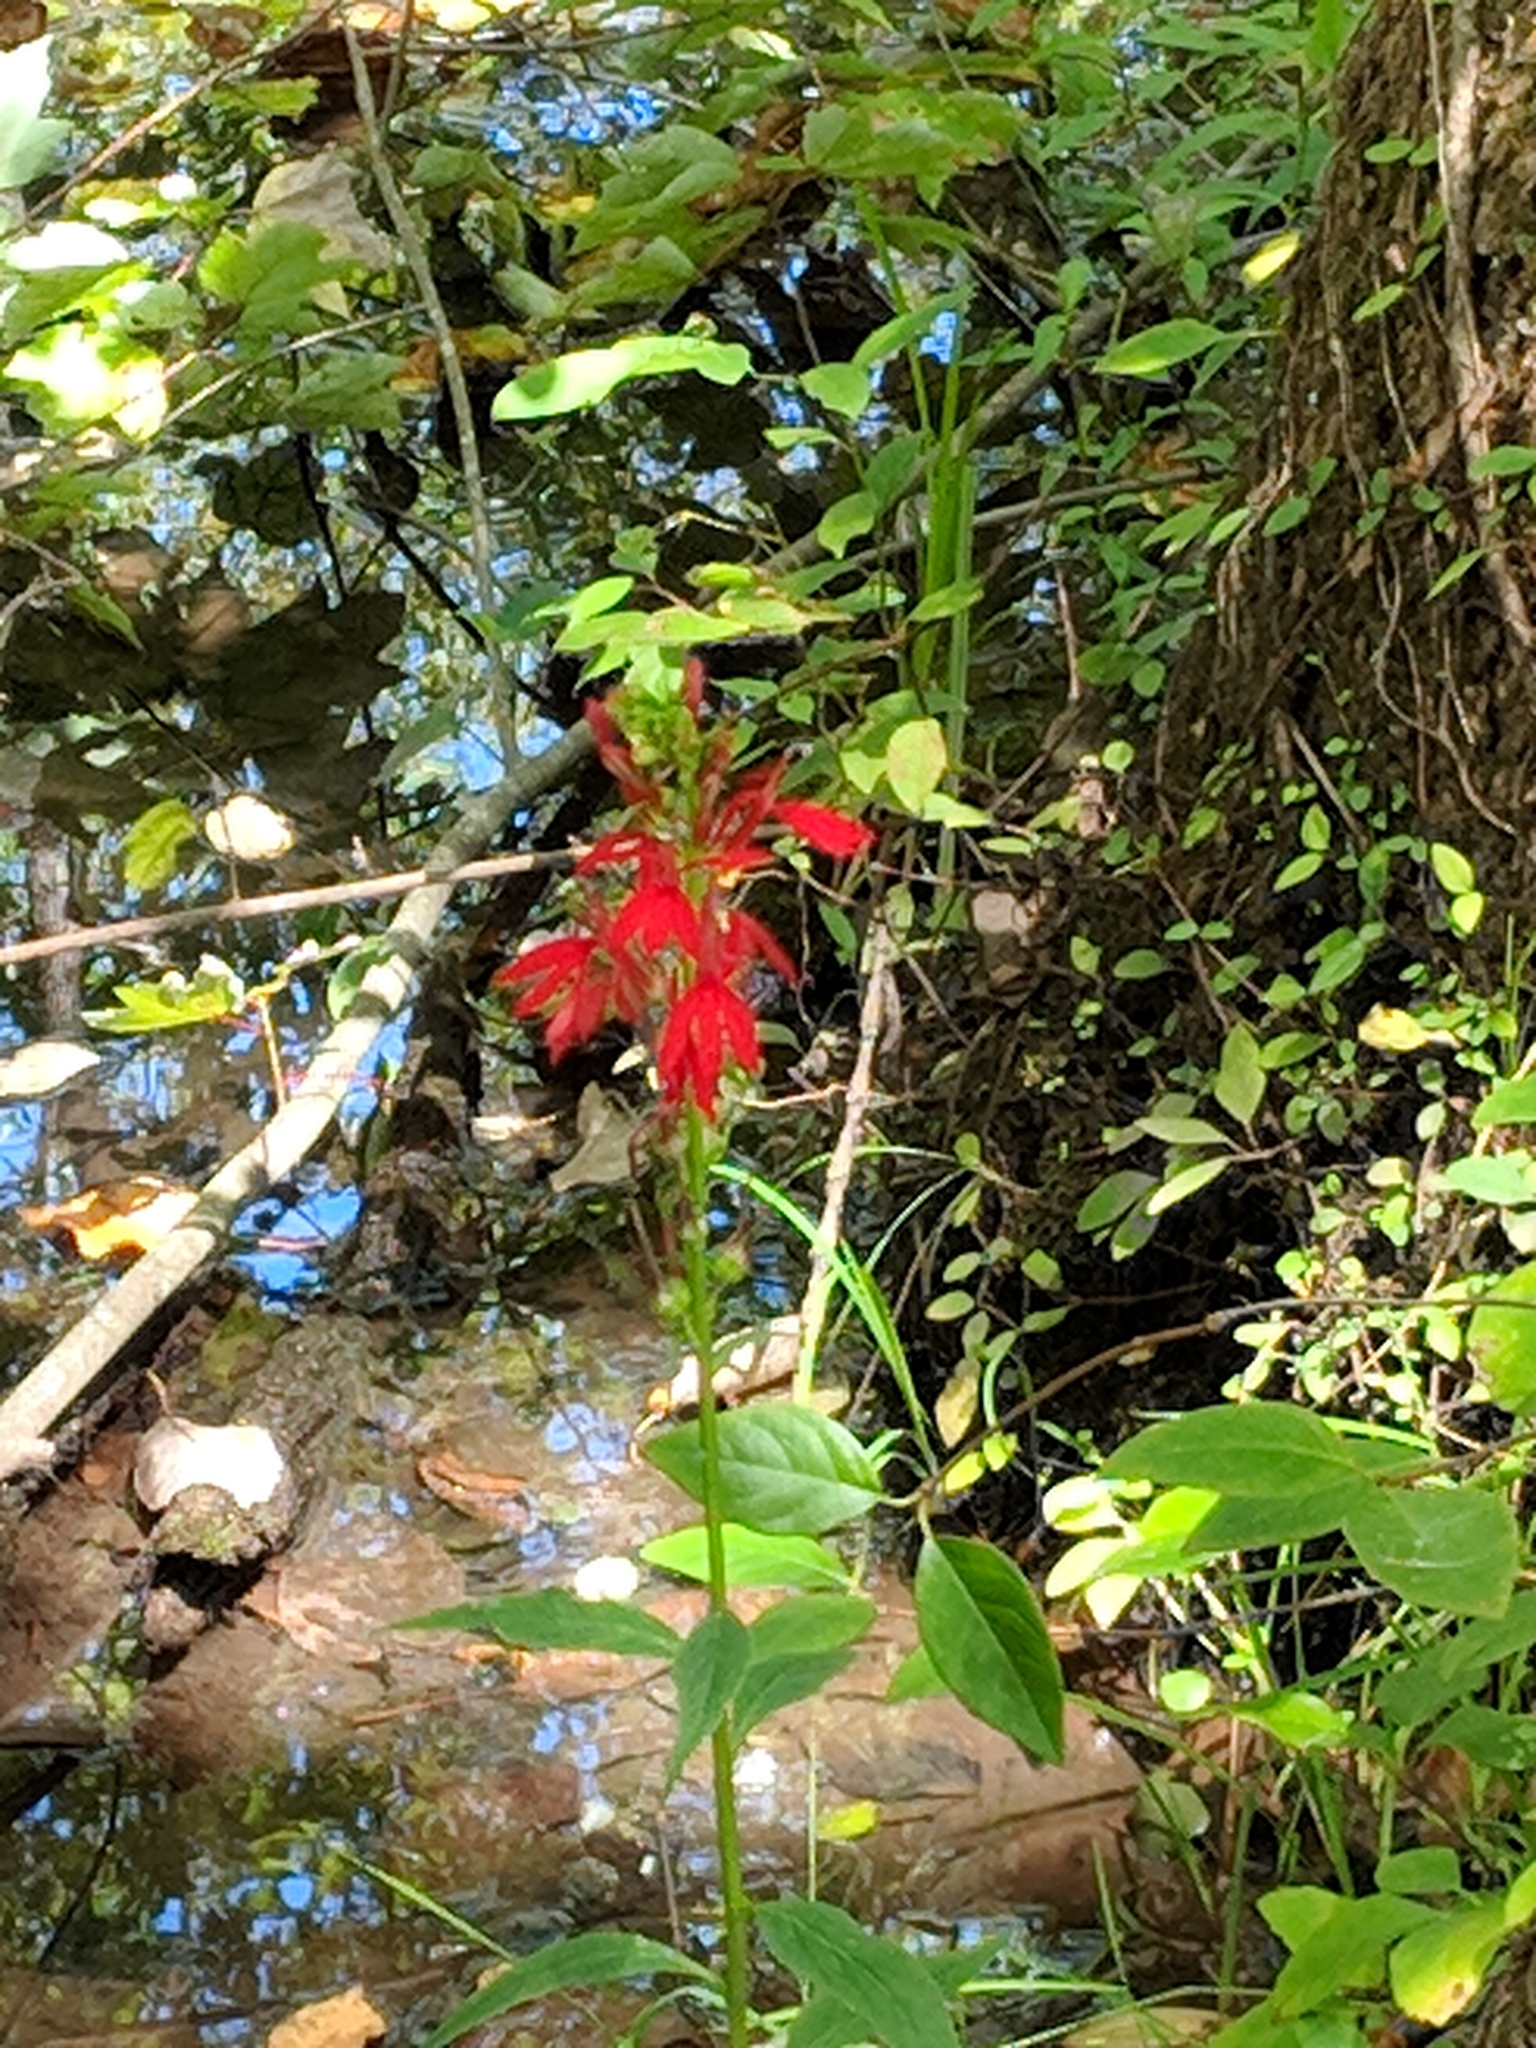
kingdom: Plantae
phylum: Tracheophyta
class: Magnoliopsida
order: Asterales
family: Campanulaceae
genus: Lobelia
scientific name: Lobelia cardinalis
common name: Cardinal flower
